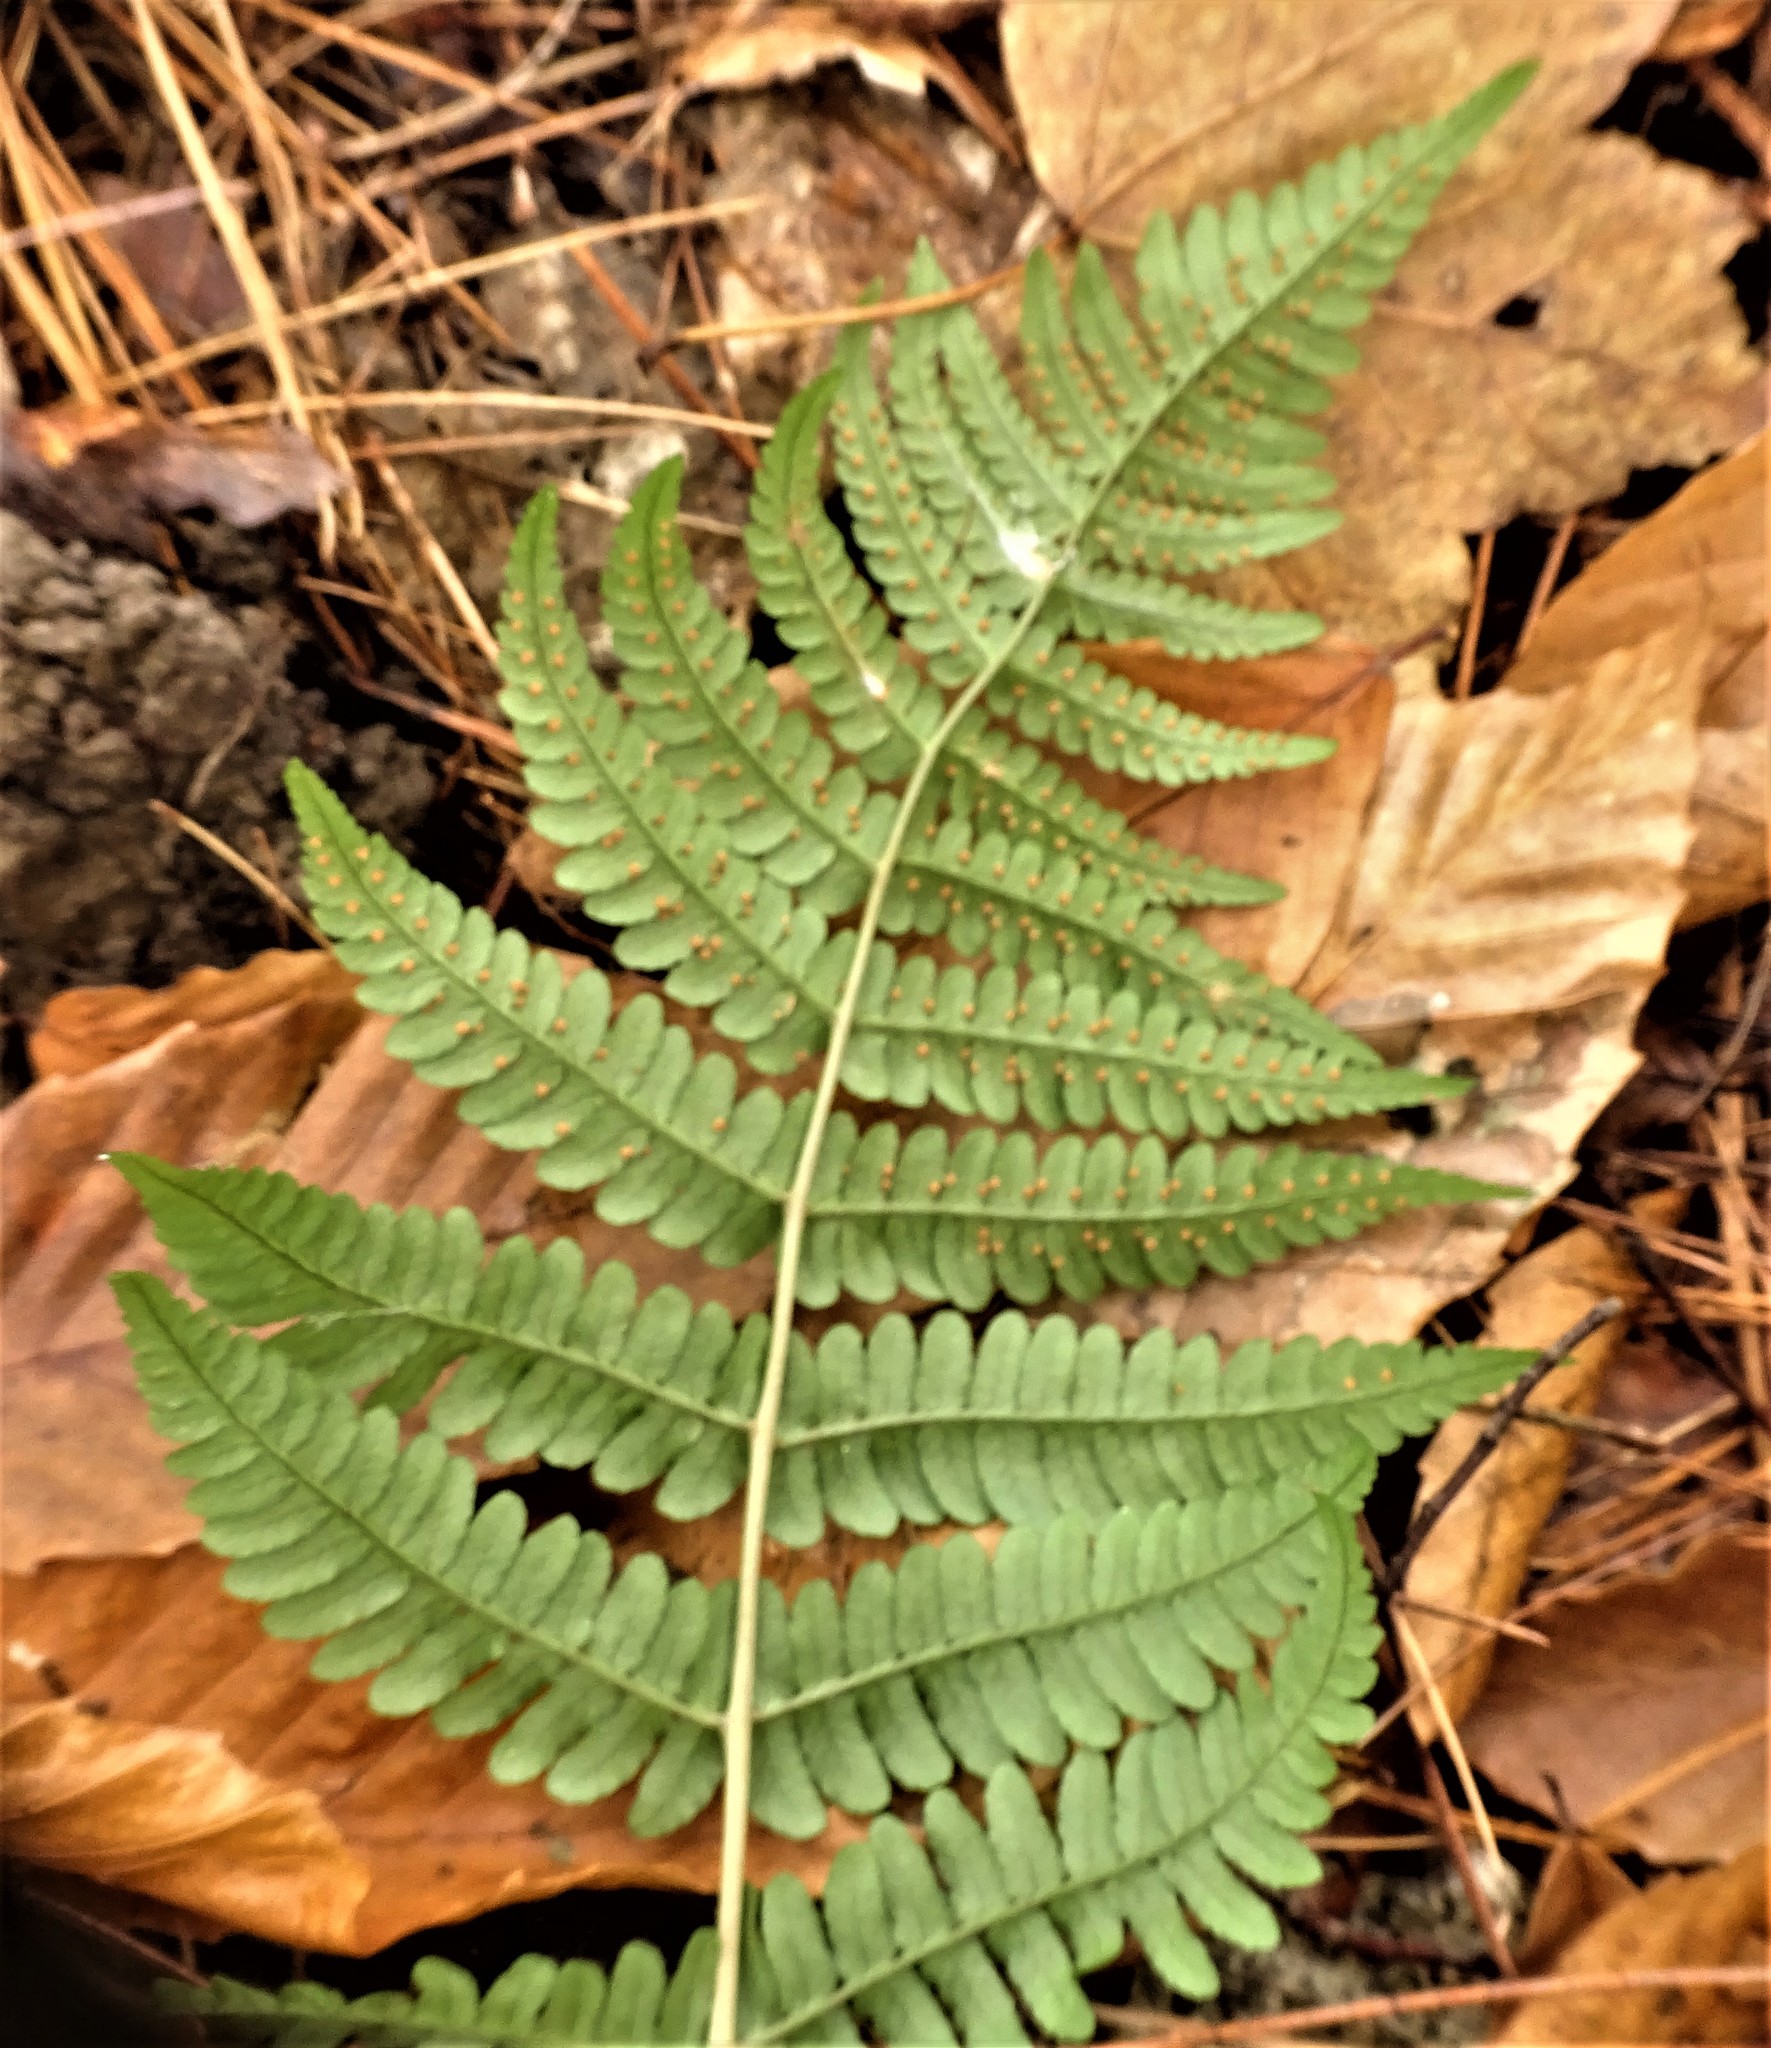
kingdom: Plantae
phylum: Tracheophyta
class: Polypodiopsida
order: Polypodiales
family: Dryopteridaceae
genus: Dryopteris
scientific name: Dryopteris marginalis
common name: Marginal wood fern
